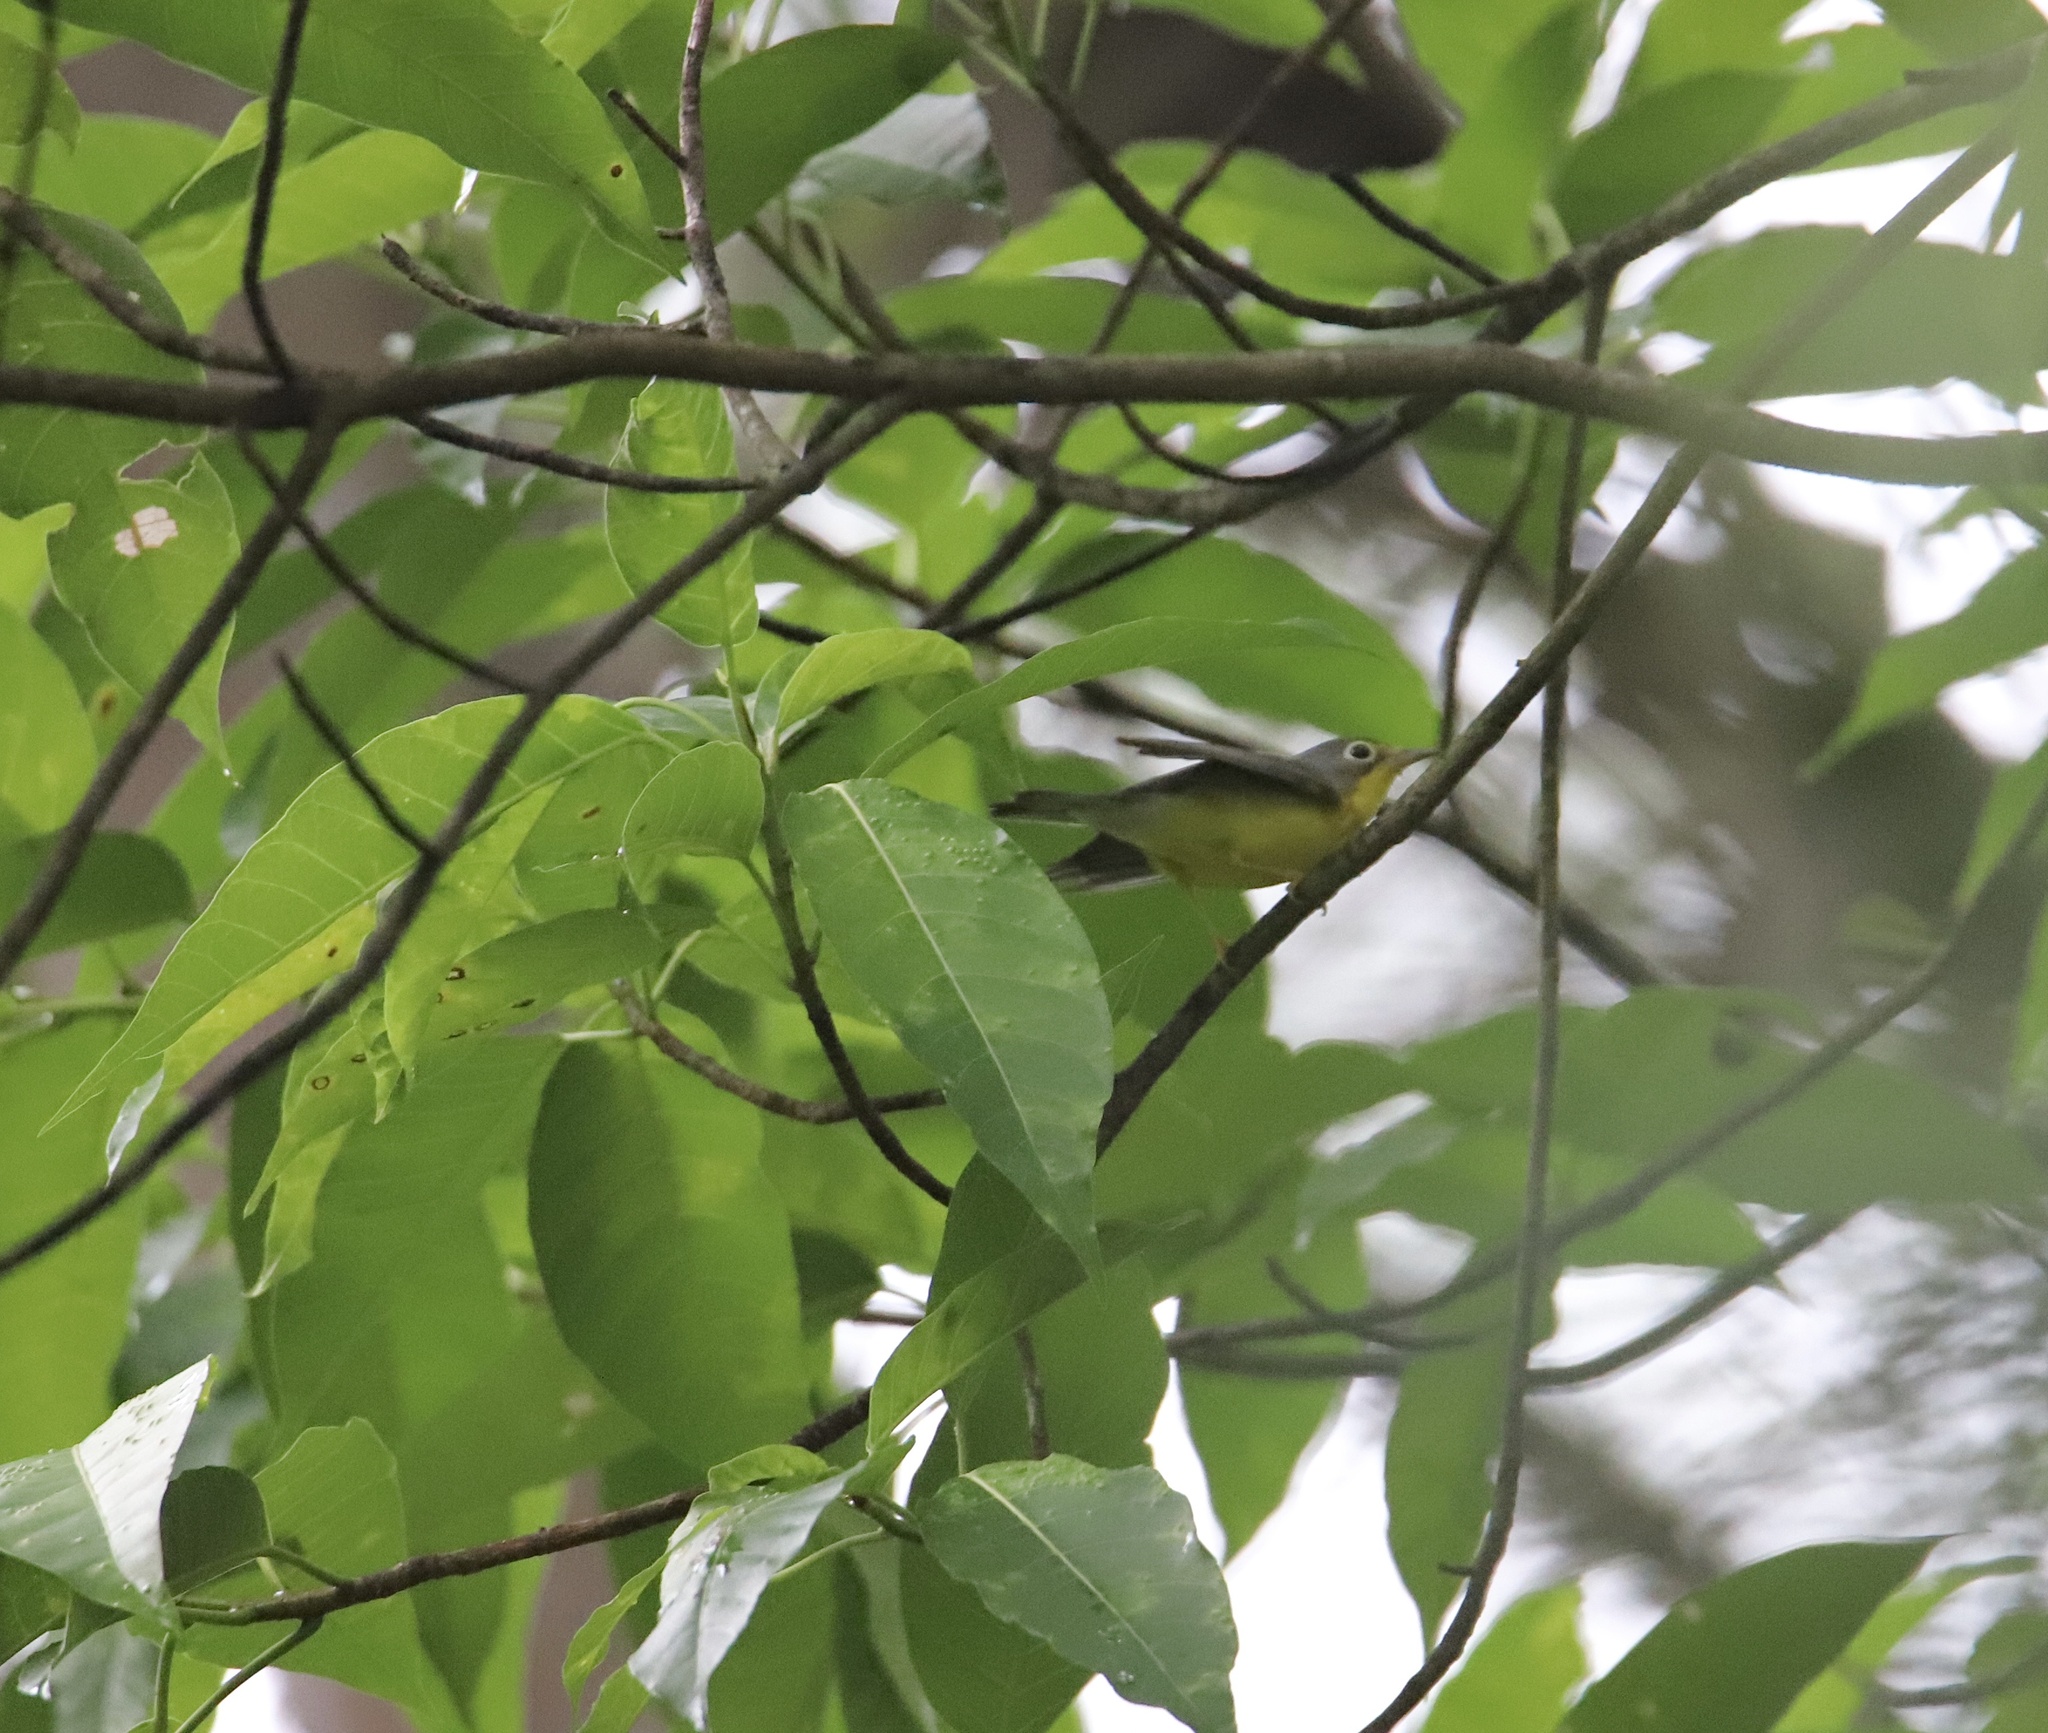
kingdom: Animalia
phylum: Chordata
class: Aves
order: Passeriformes
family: Parulidae
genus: Cardellina
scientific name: Cardellina canadensis
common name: Canada warbler
